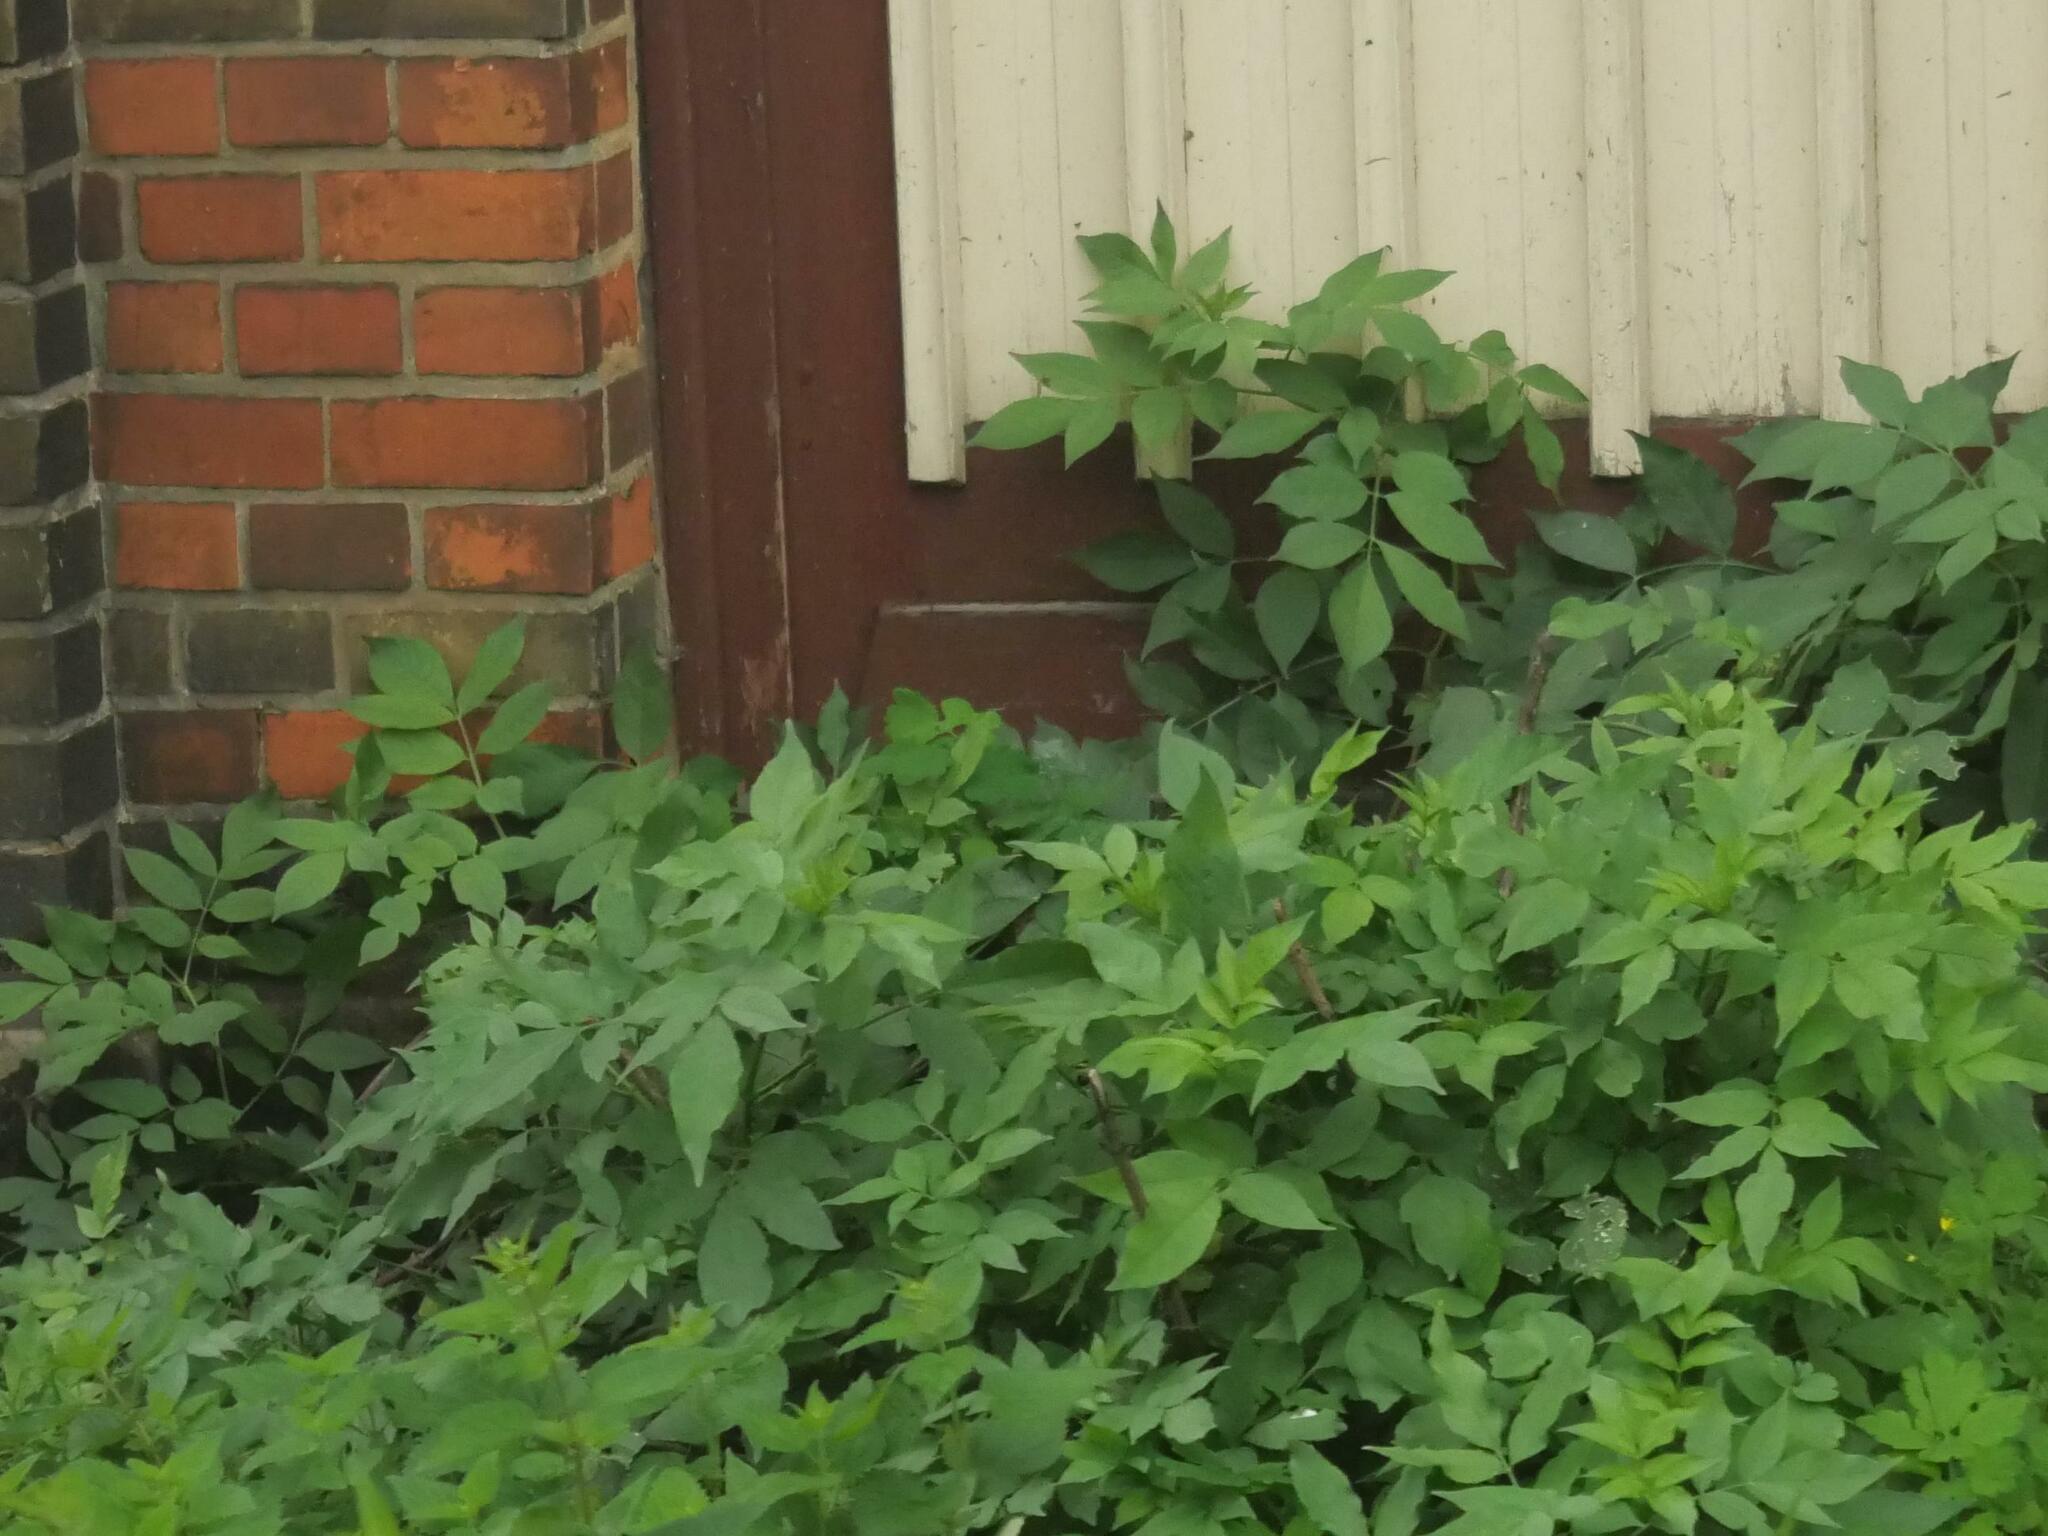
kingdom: Plantae
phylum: Tracheophyta
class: Magnoliopsida
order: Dipsacales
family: Viburnaceae
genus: Sambucus
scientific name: Sambucus nigra
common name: Elder
